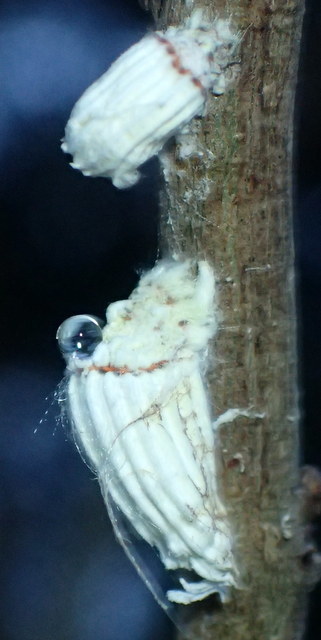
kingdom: Animalia
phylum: Arthropoda
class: Insecta
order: Hemiptera
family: Margarodidae
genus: Icerya
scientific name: Icerya purchasi
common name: Cottony cushion scale
